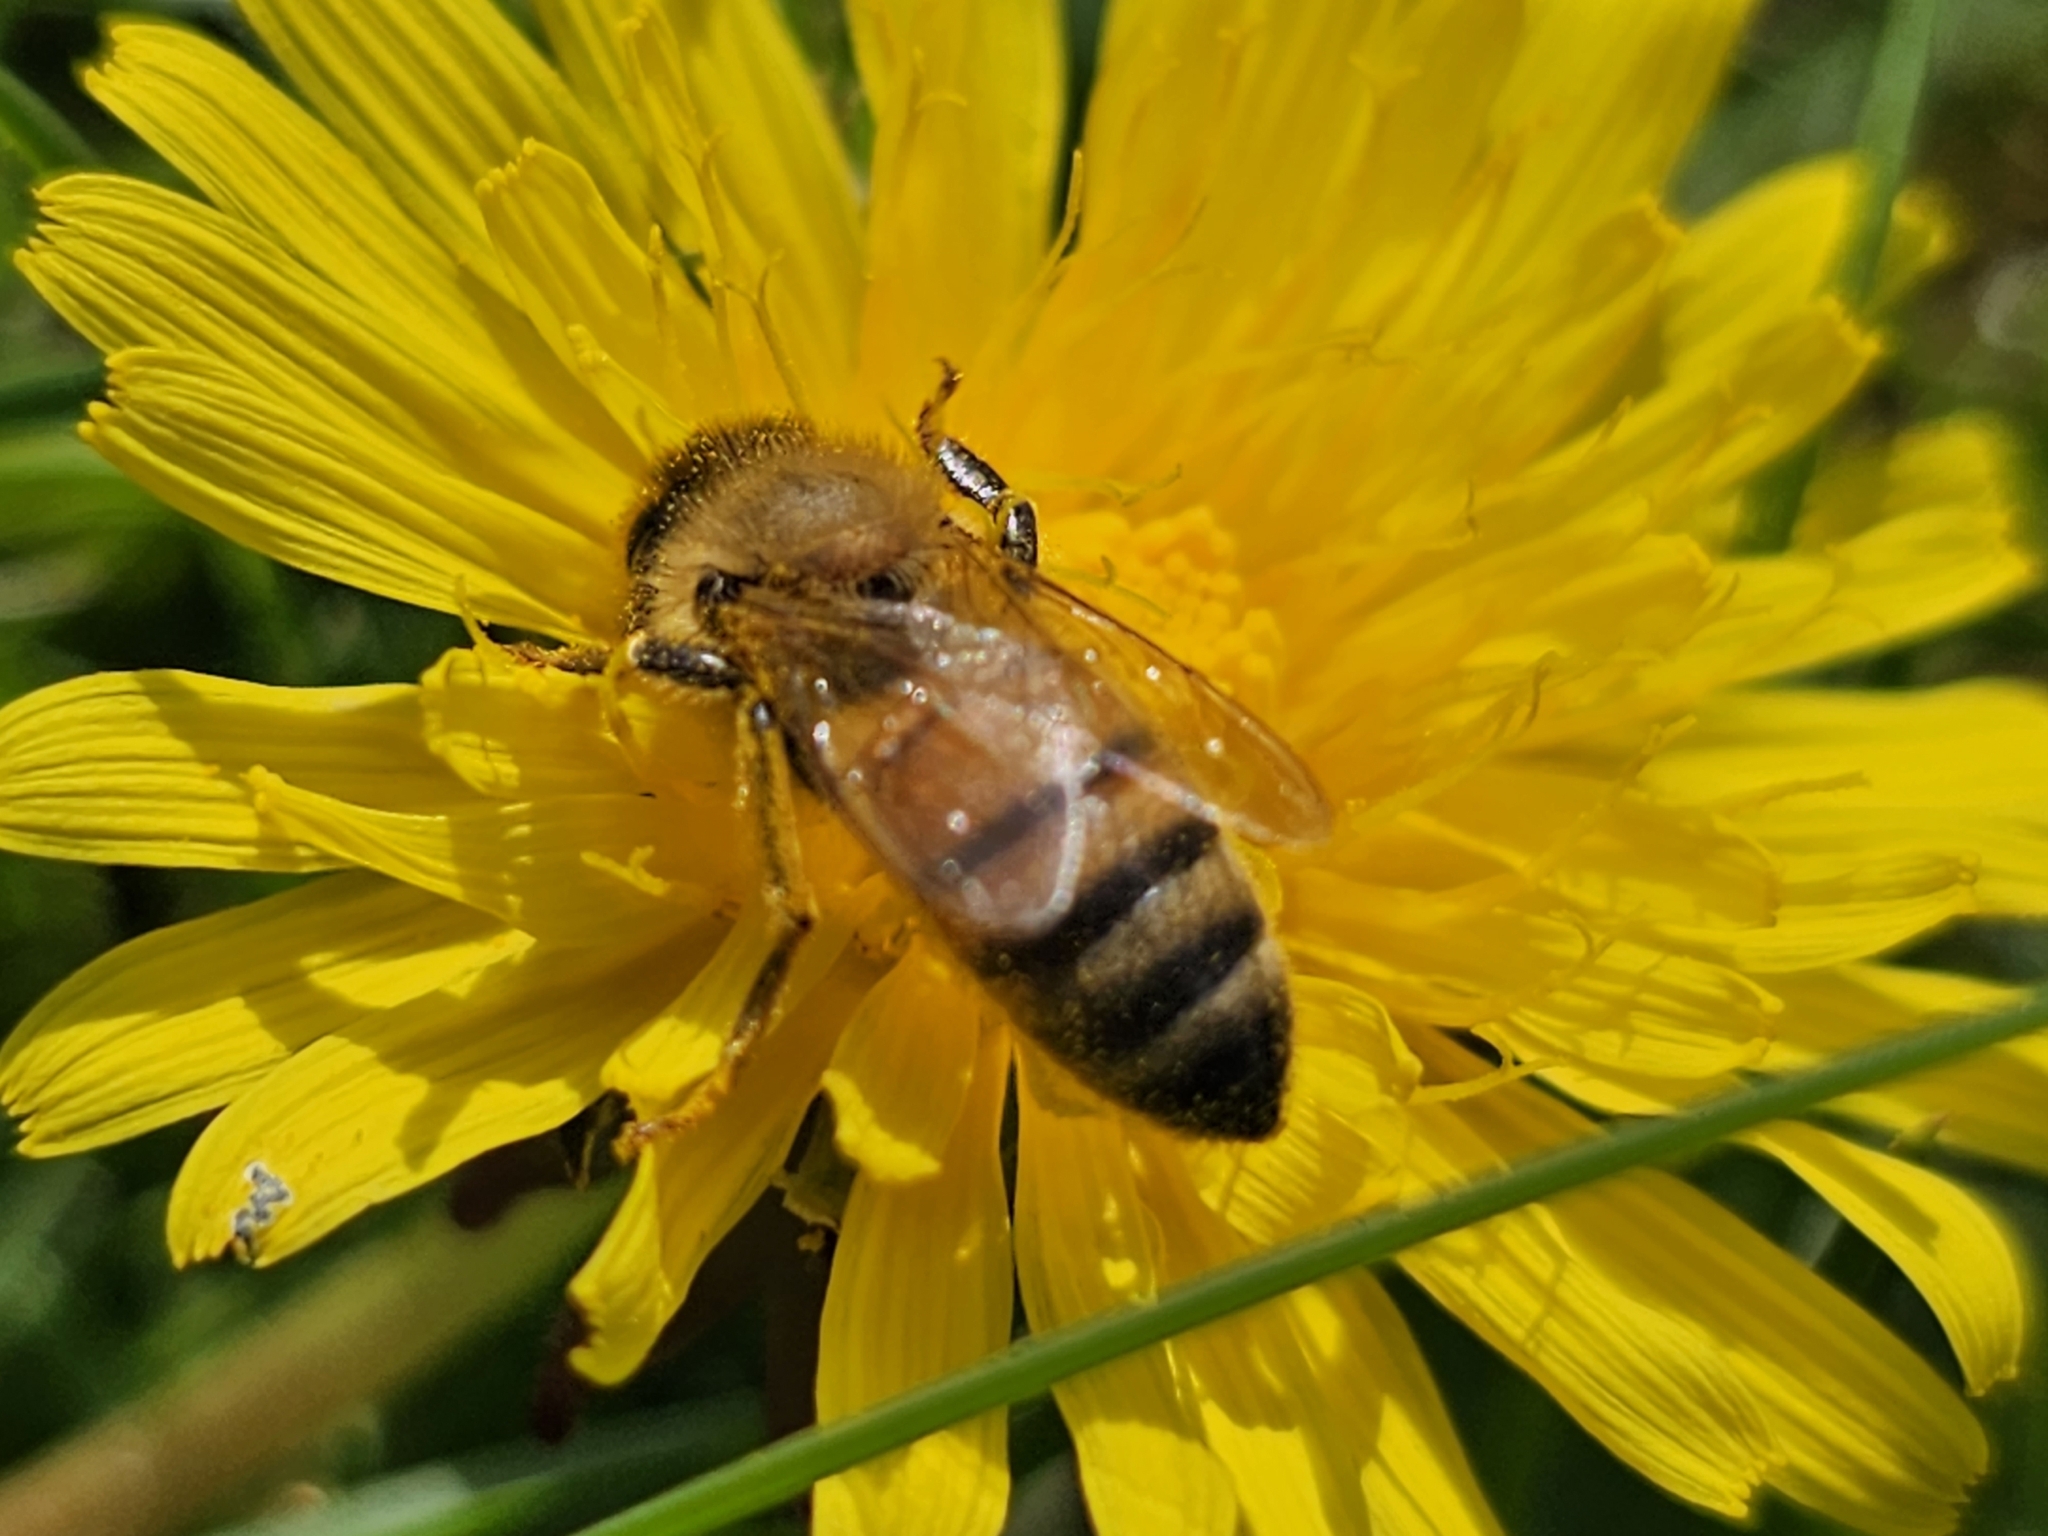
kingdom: Animalia
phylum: Arthropoda
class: Insecta
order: Hymenoptera
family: Apidae
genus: Apis
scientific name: Apis mellifera
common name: Honey bee
